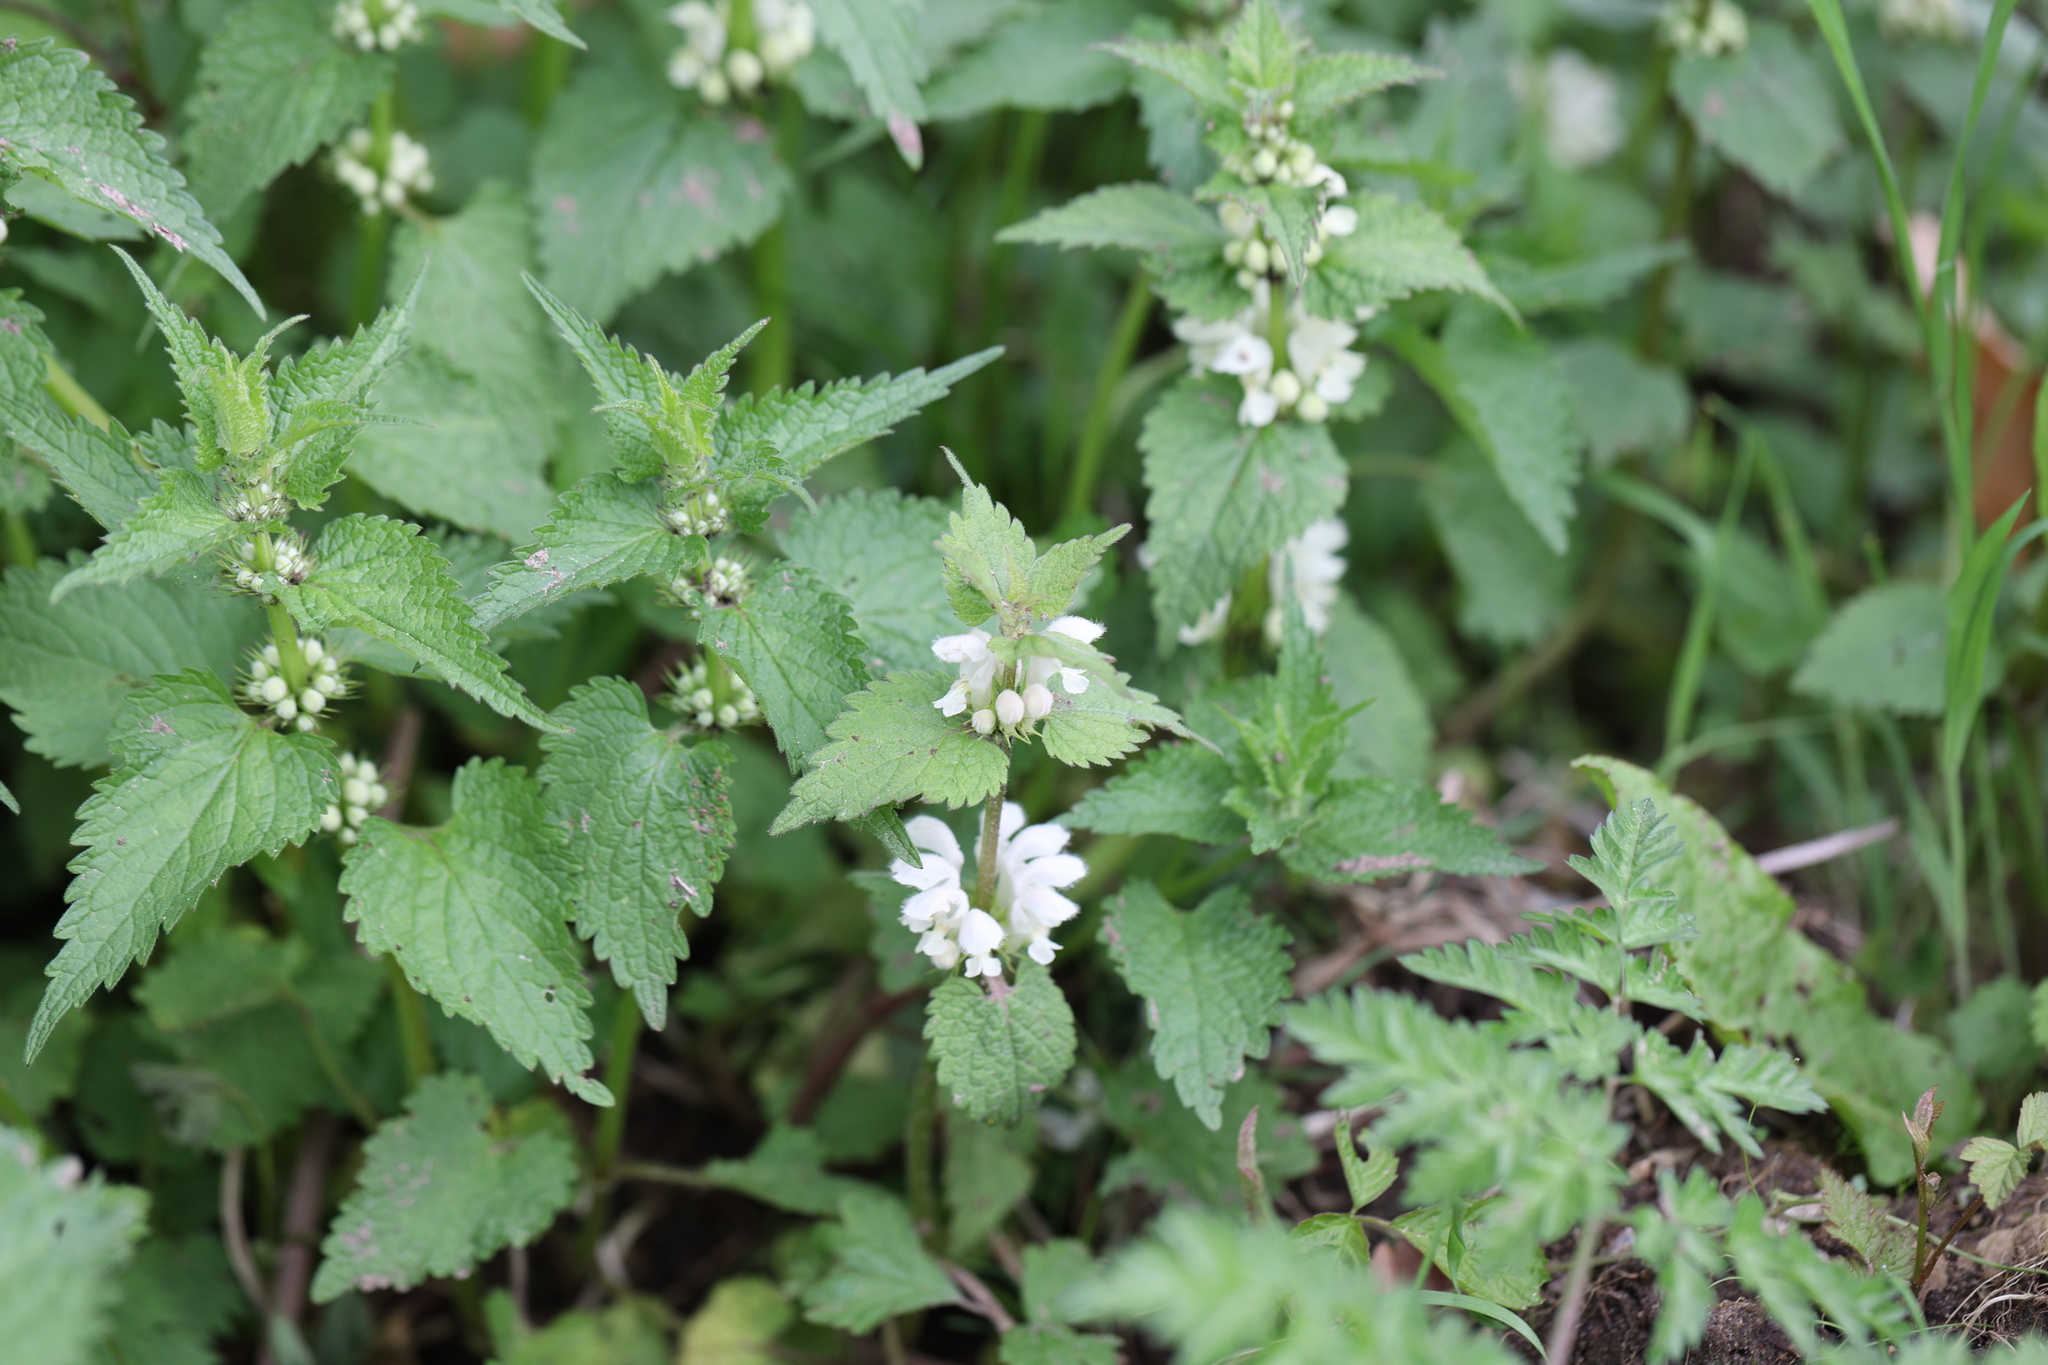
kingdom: Plantae
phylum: Tracheophyta
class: Magnoliopsida
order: Lamiales
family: Lamiaceae
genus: Lamium
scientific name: Lamium album
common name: White dead-nettle
